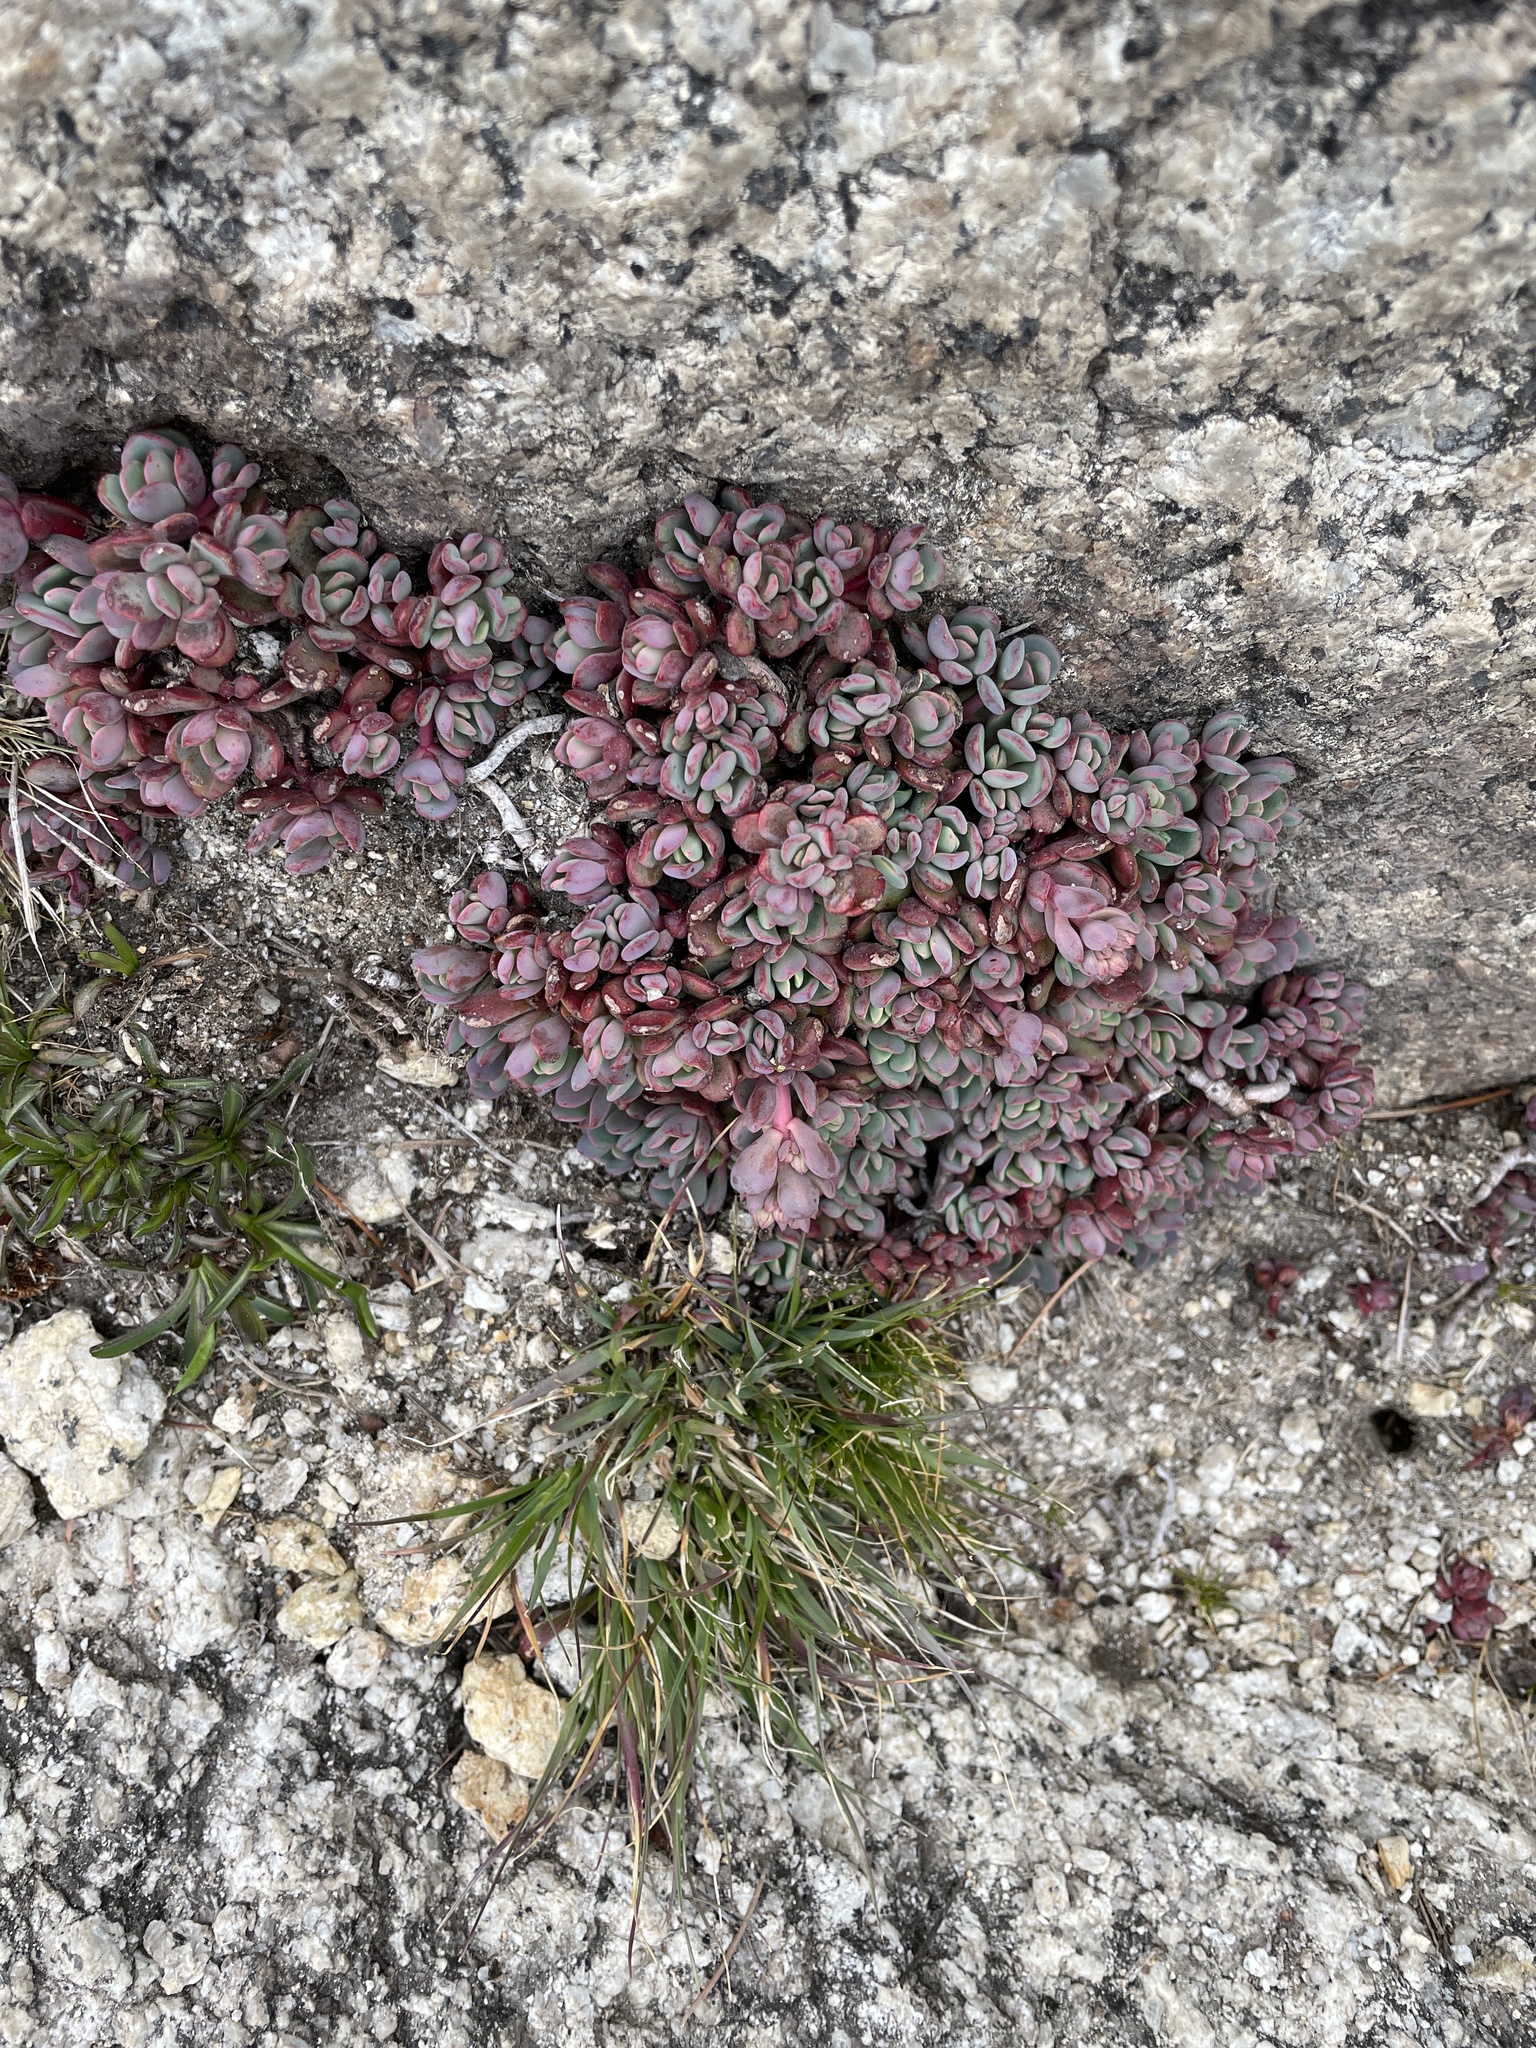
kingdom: Plantae
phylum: Tracheophyta
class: Magnoliopsida
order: Saxifragales
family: Crassulaceae
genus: Sedum
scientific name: Sedum obtusatum
